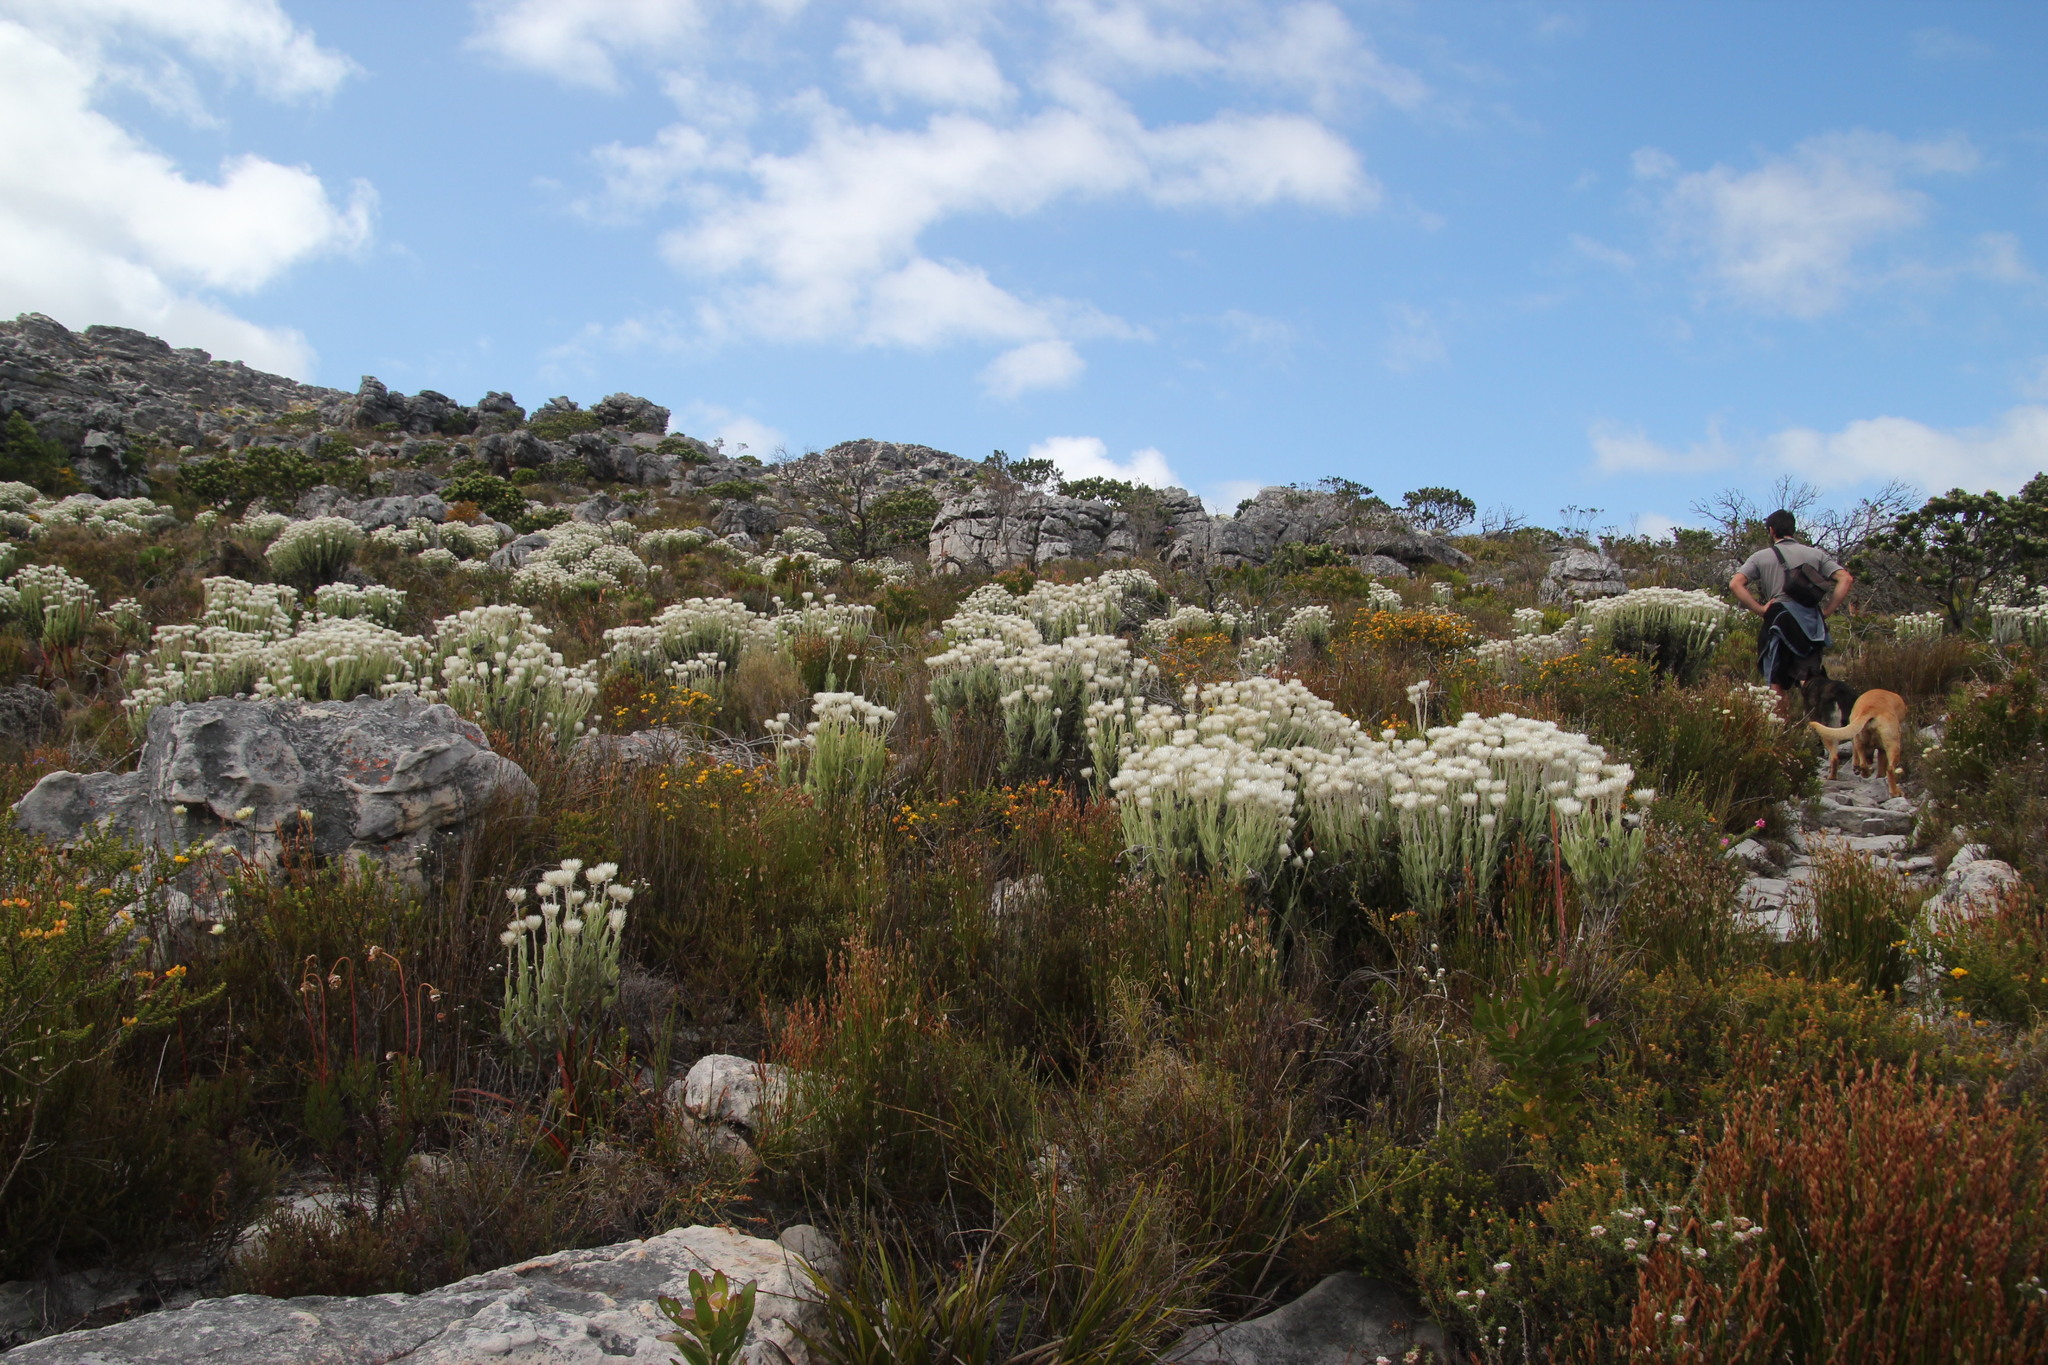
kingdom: Plantae
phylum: Tracheophyta
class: Magnoliopsida
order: Asterales
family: Asteraceae
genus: Syncarpha
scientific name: Syncarpha vestita
